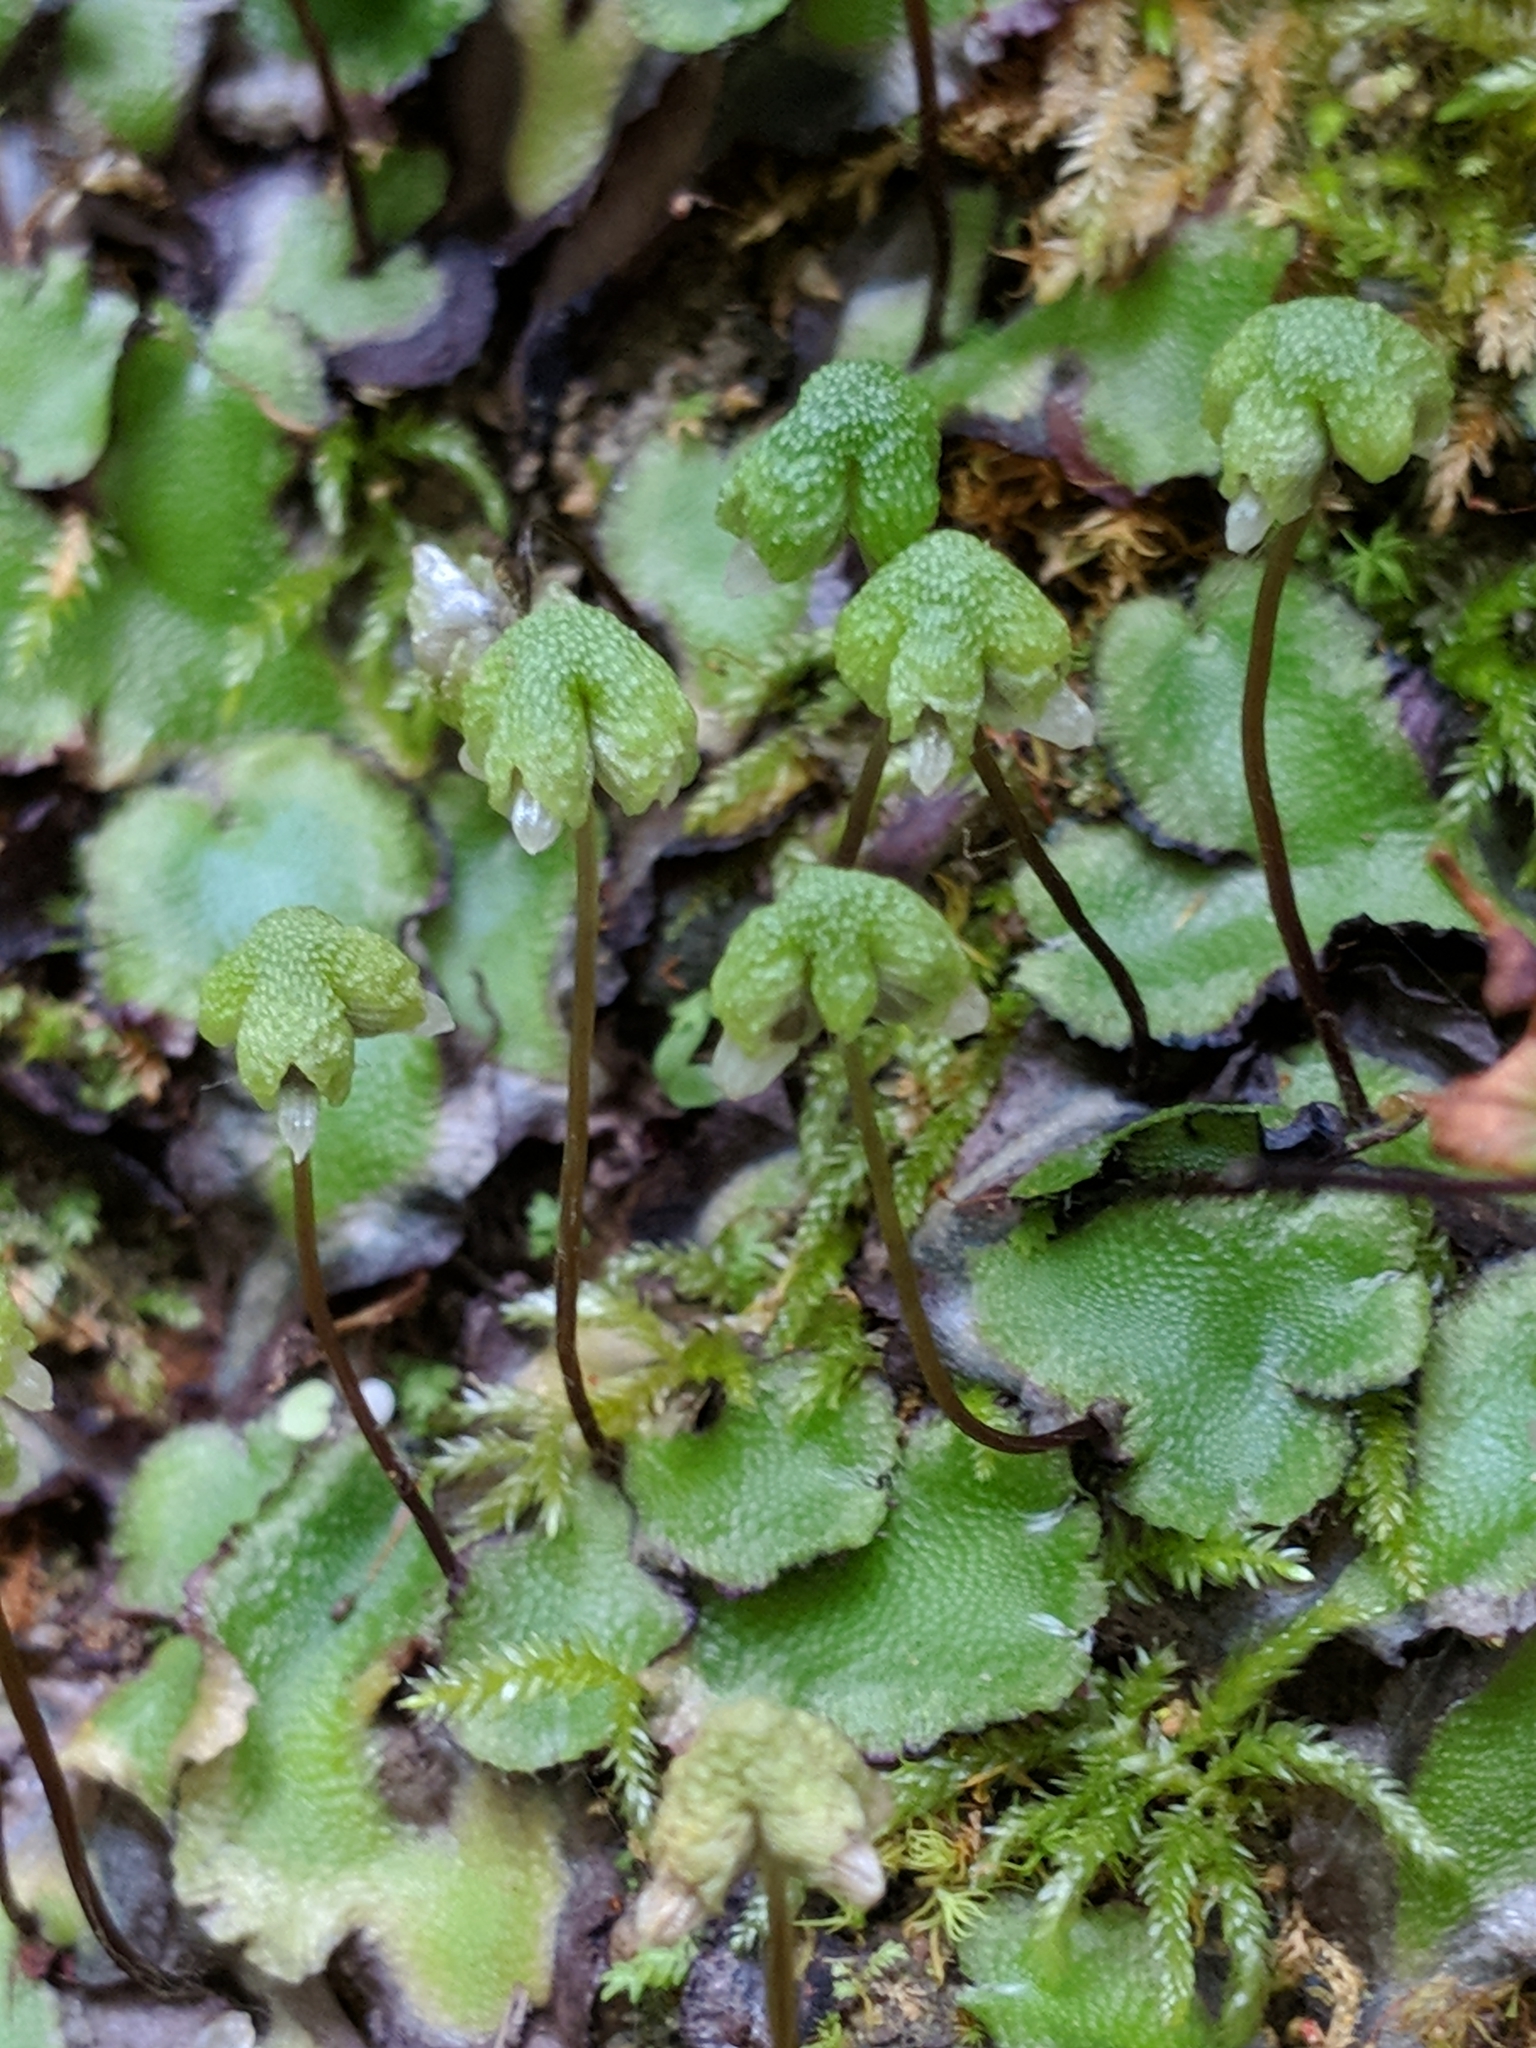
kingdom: Plantae
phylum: Marchantiophyta
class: Marchantiopsida
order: Marchantiales
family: Aytoniaceae
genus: Asterella
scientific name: Asterella californica
